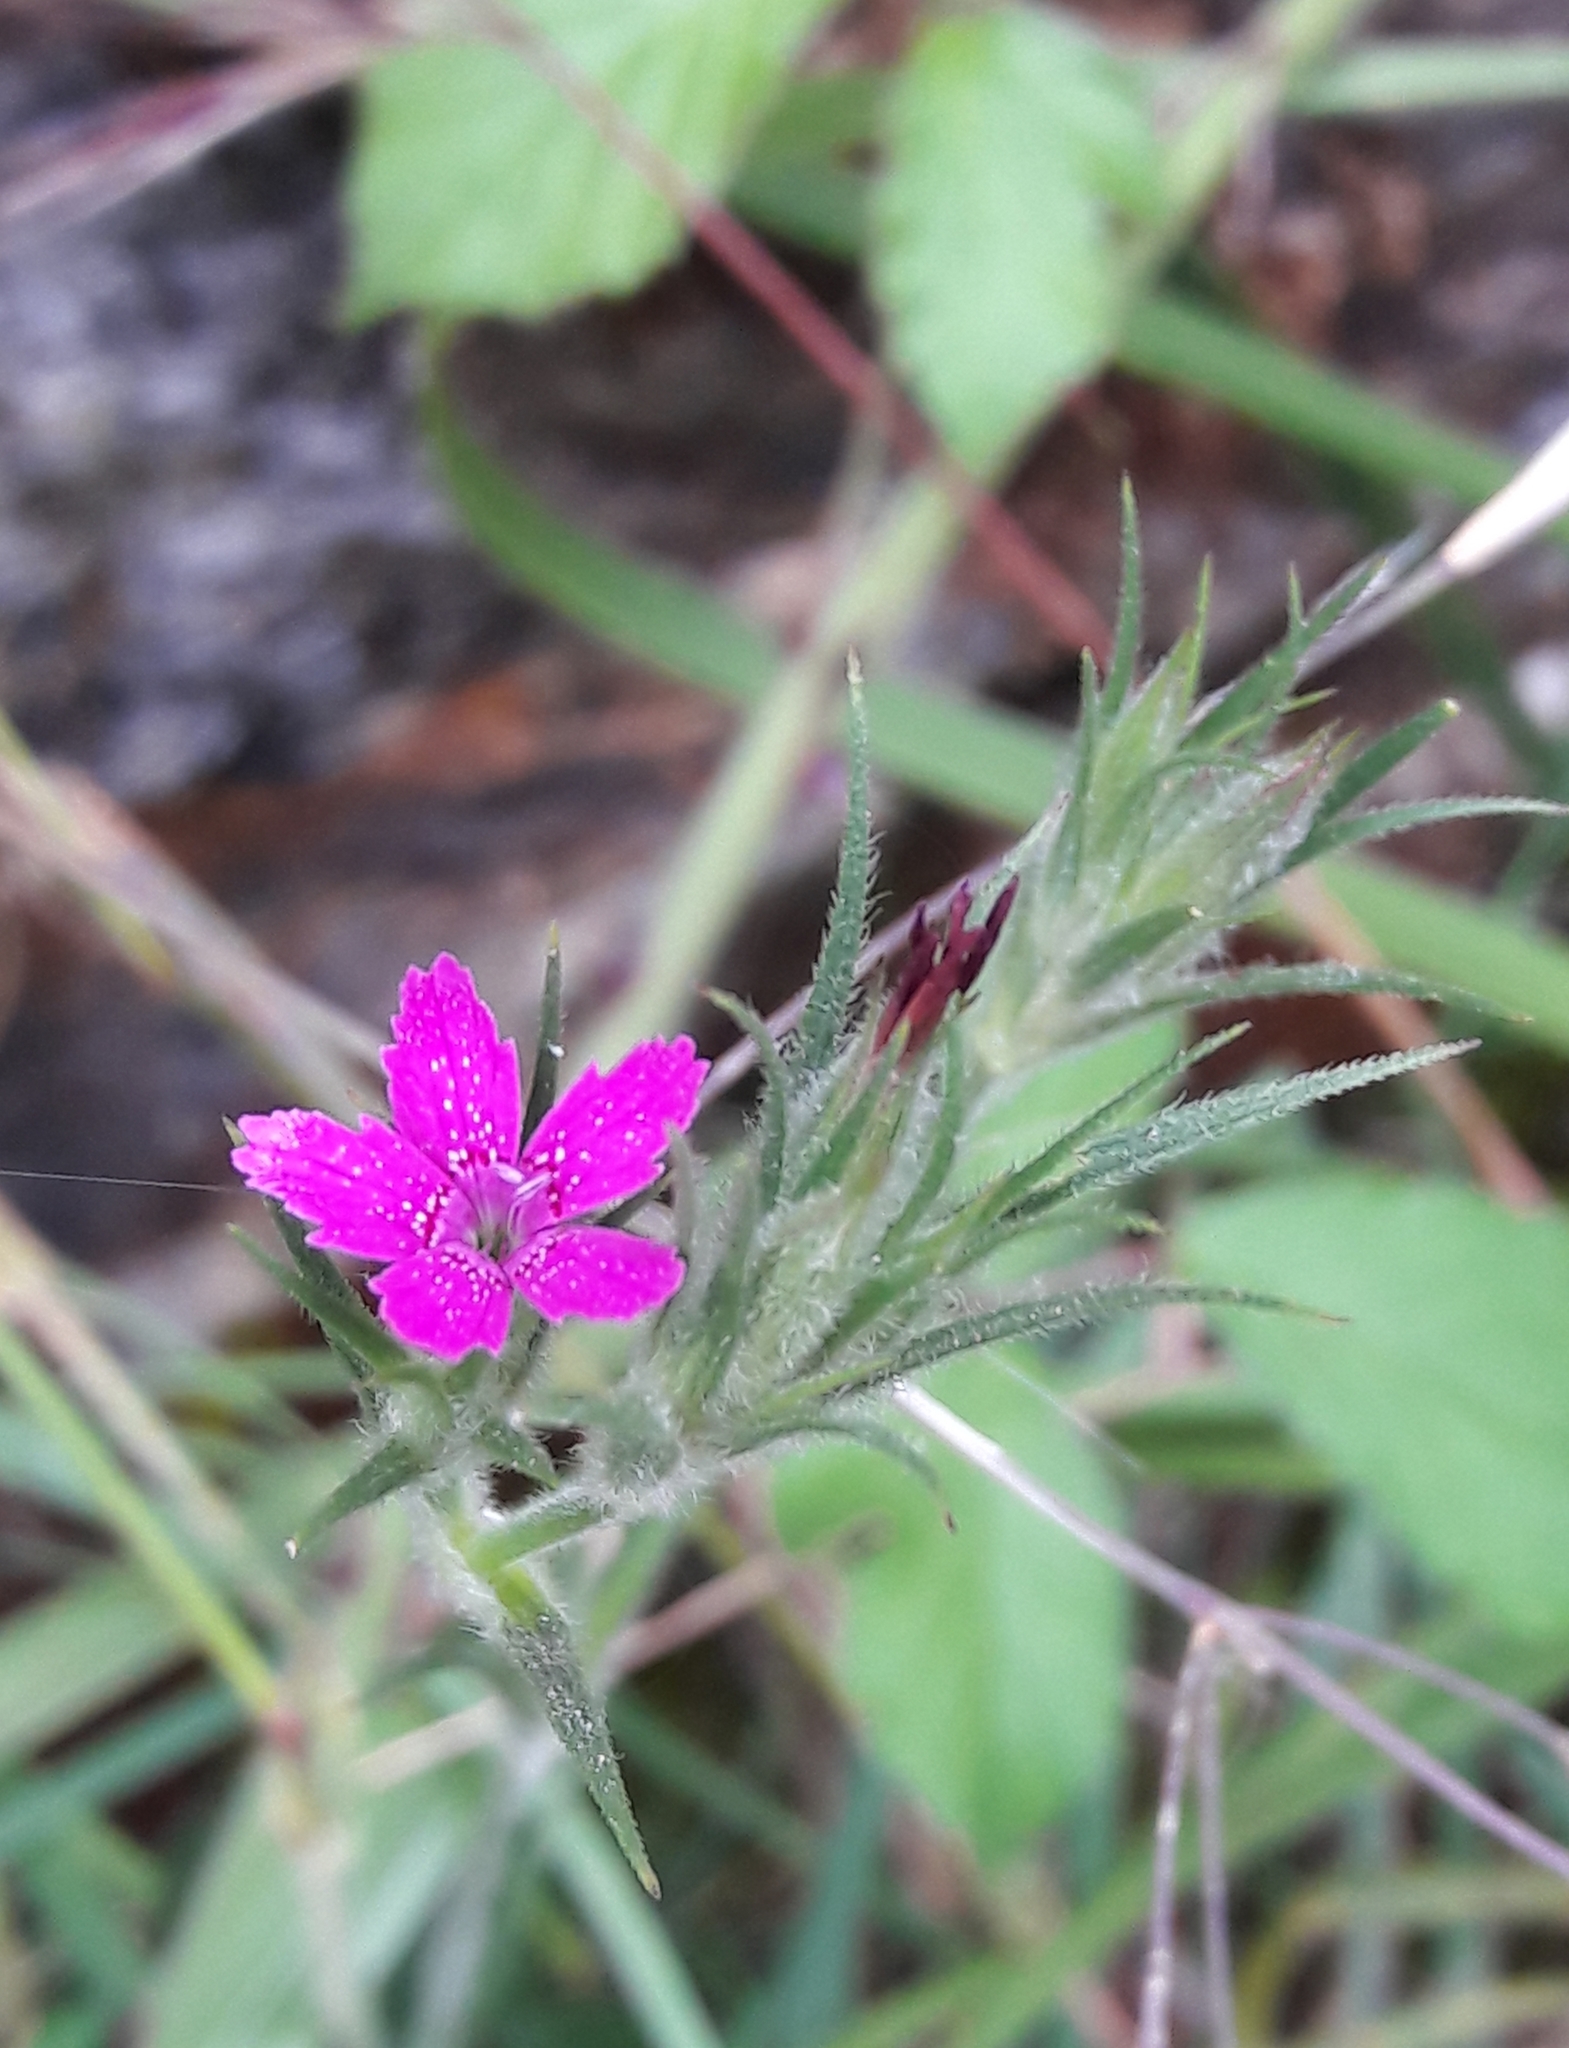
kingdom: Plantae
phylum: Tracheophyta
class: Magnoliopsida
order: Caryophyllales
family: Caryophyllaceae
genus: Dianthus
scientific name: Dianthus armeria
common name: Deptford pink
